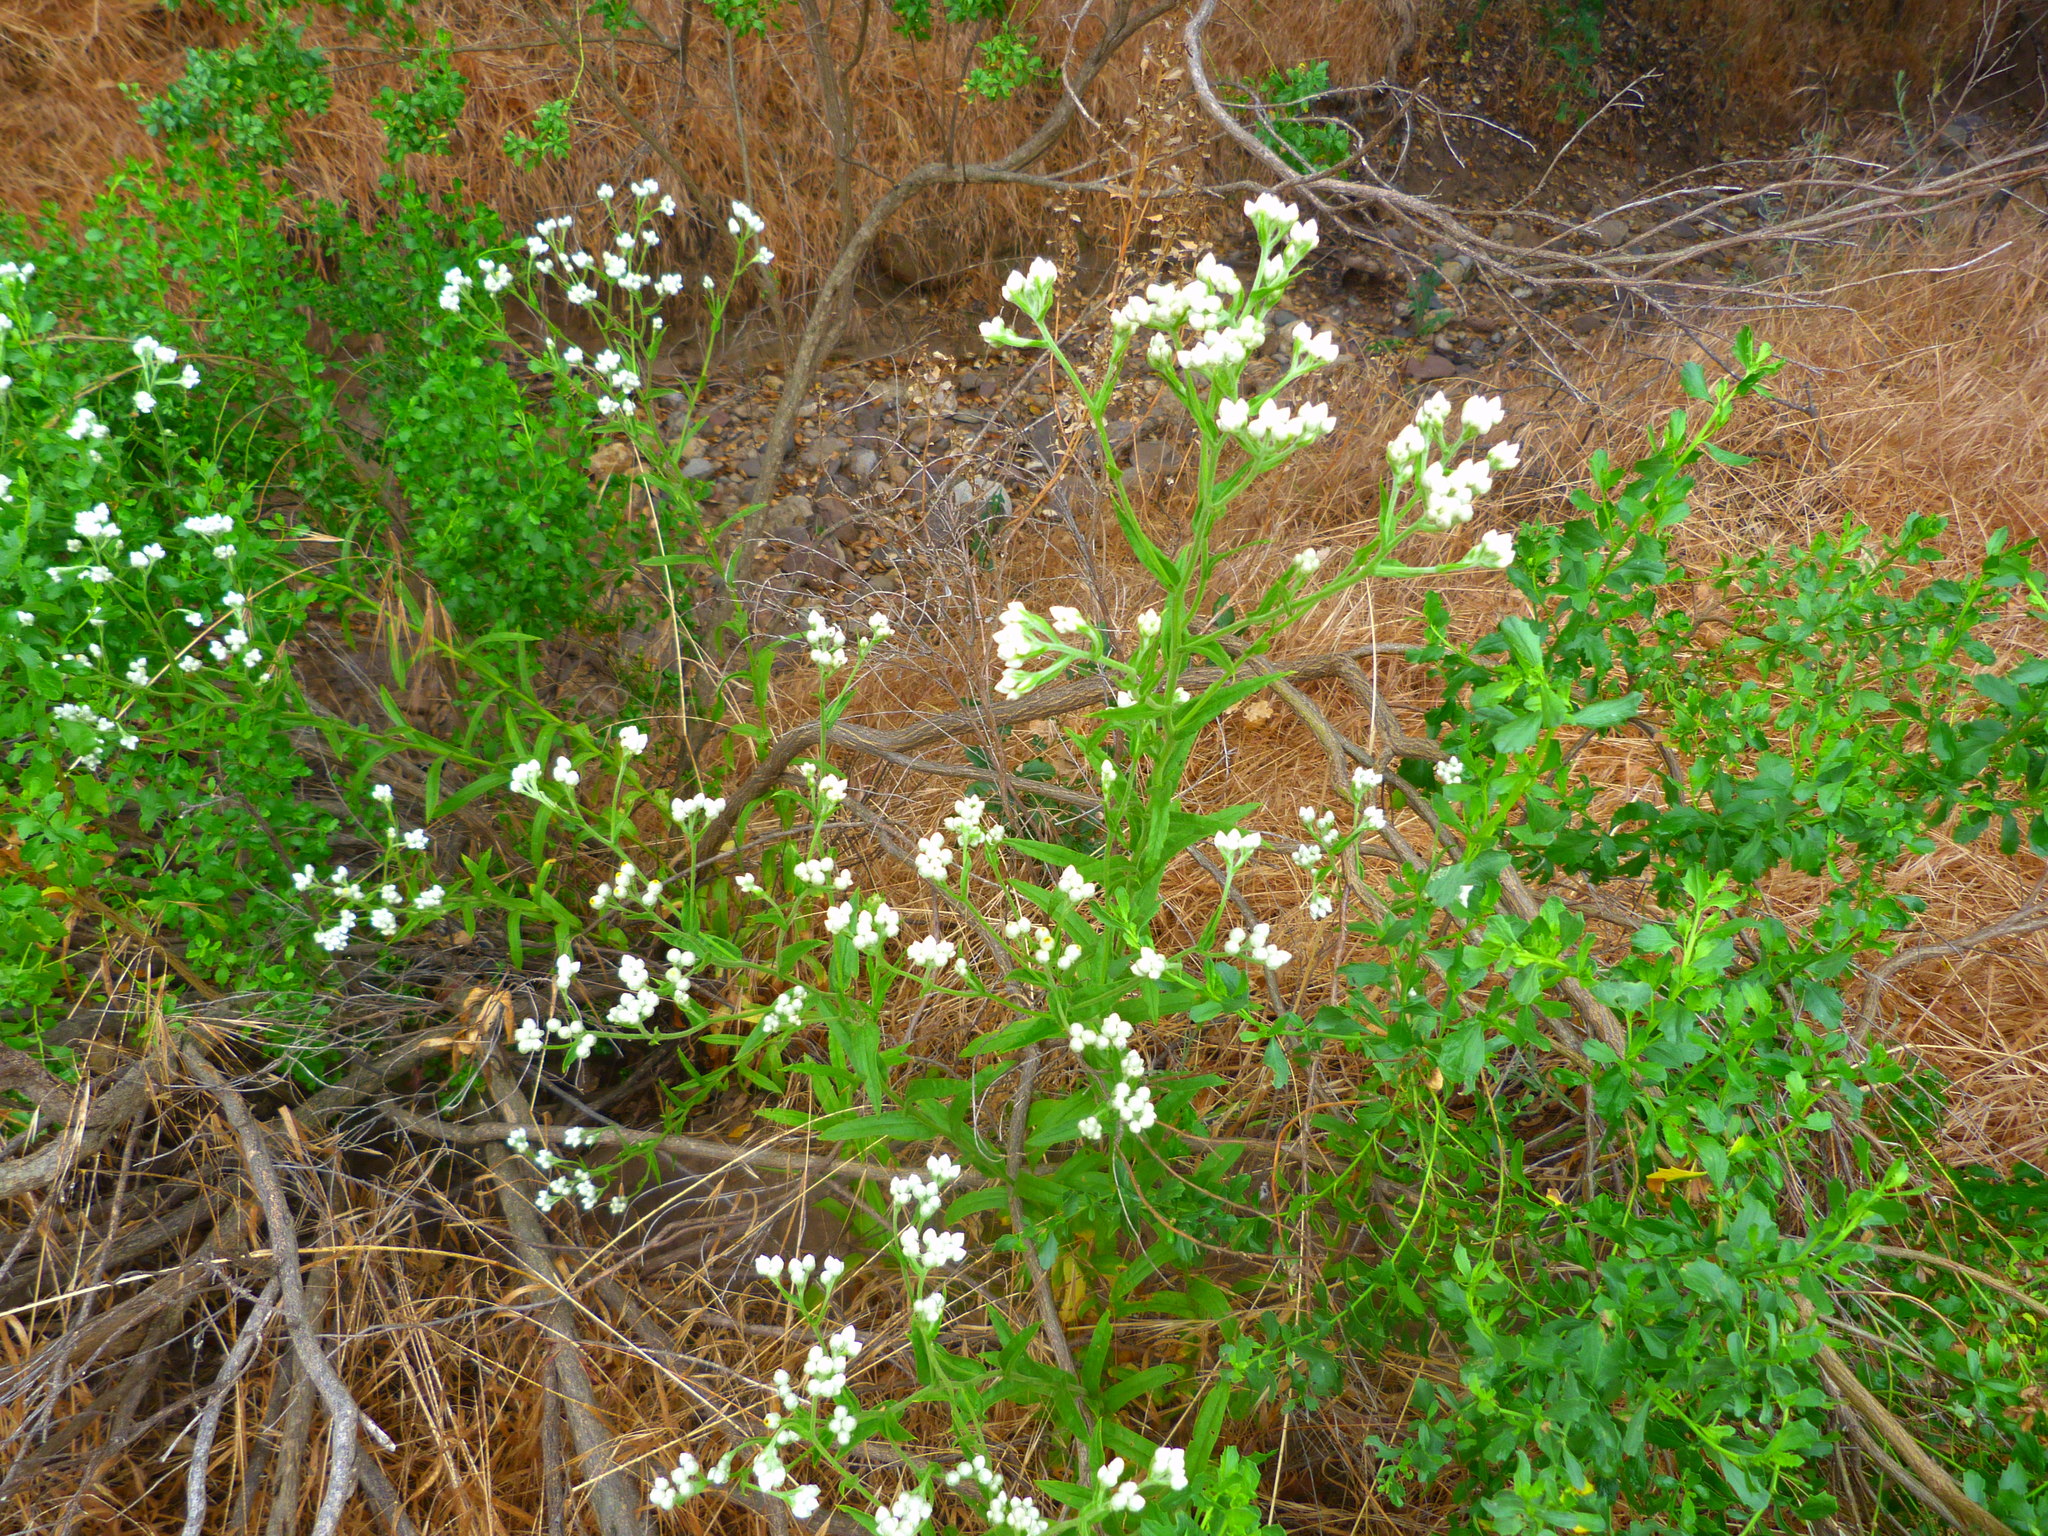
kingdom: Plantae
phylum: Tracheophyta
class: Magnoliopsida
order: Asterales
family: Asteraceae
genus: Pseudognaphalium
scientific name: Pseudognaphalium californicum
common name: California rabbit-tobacco
